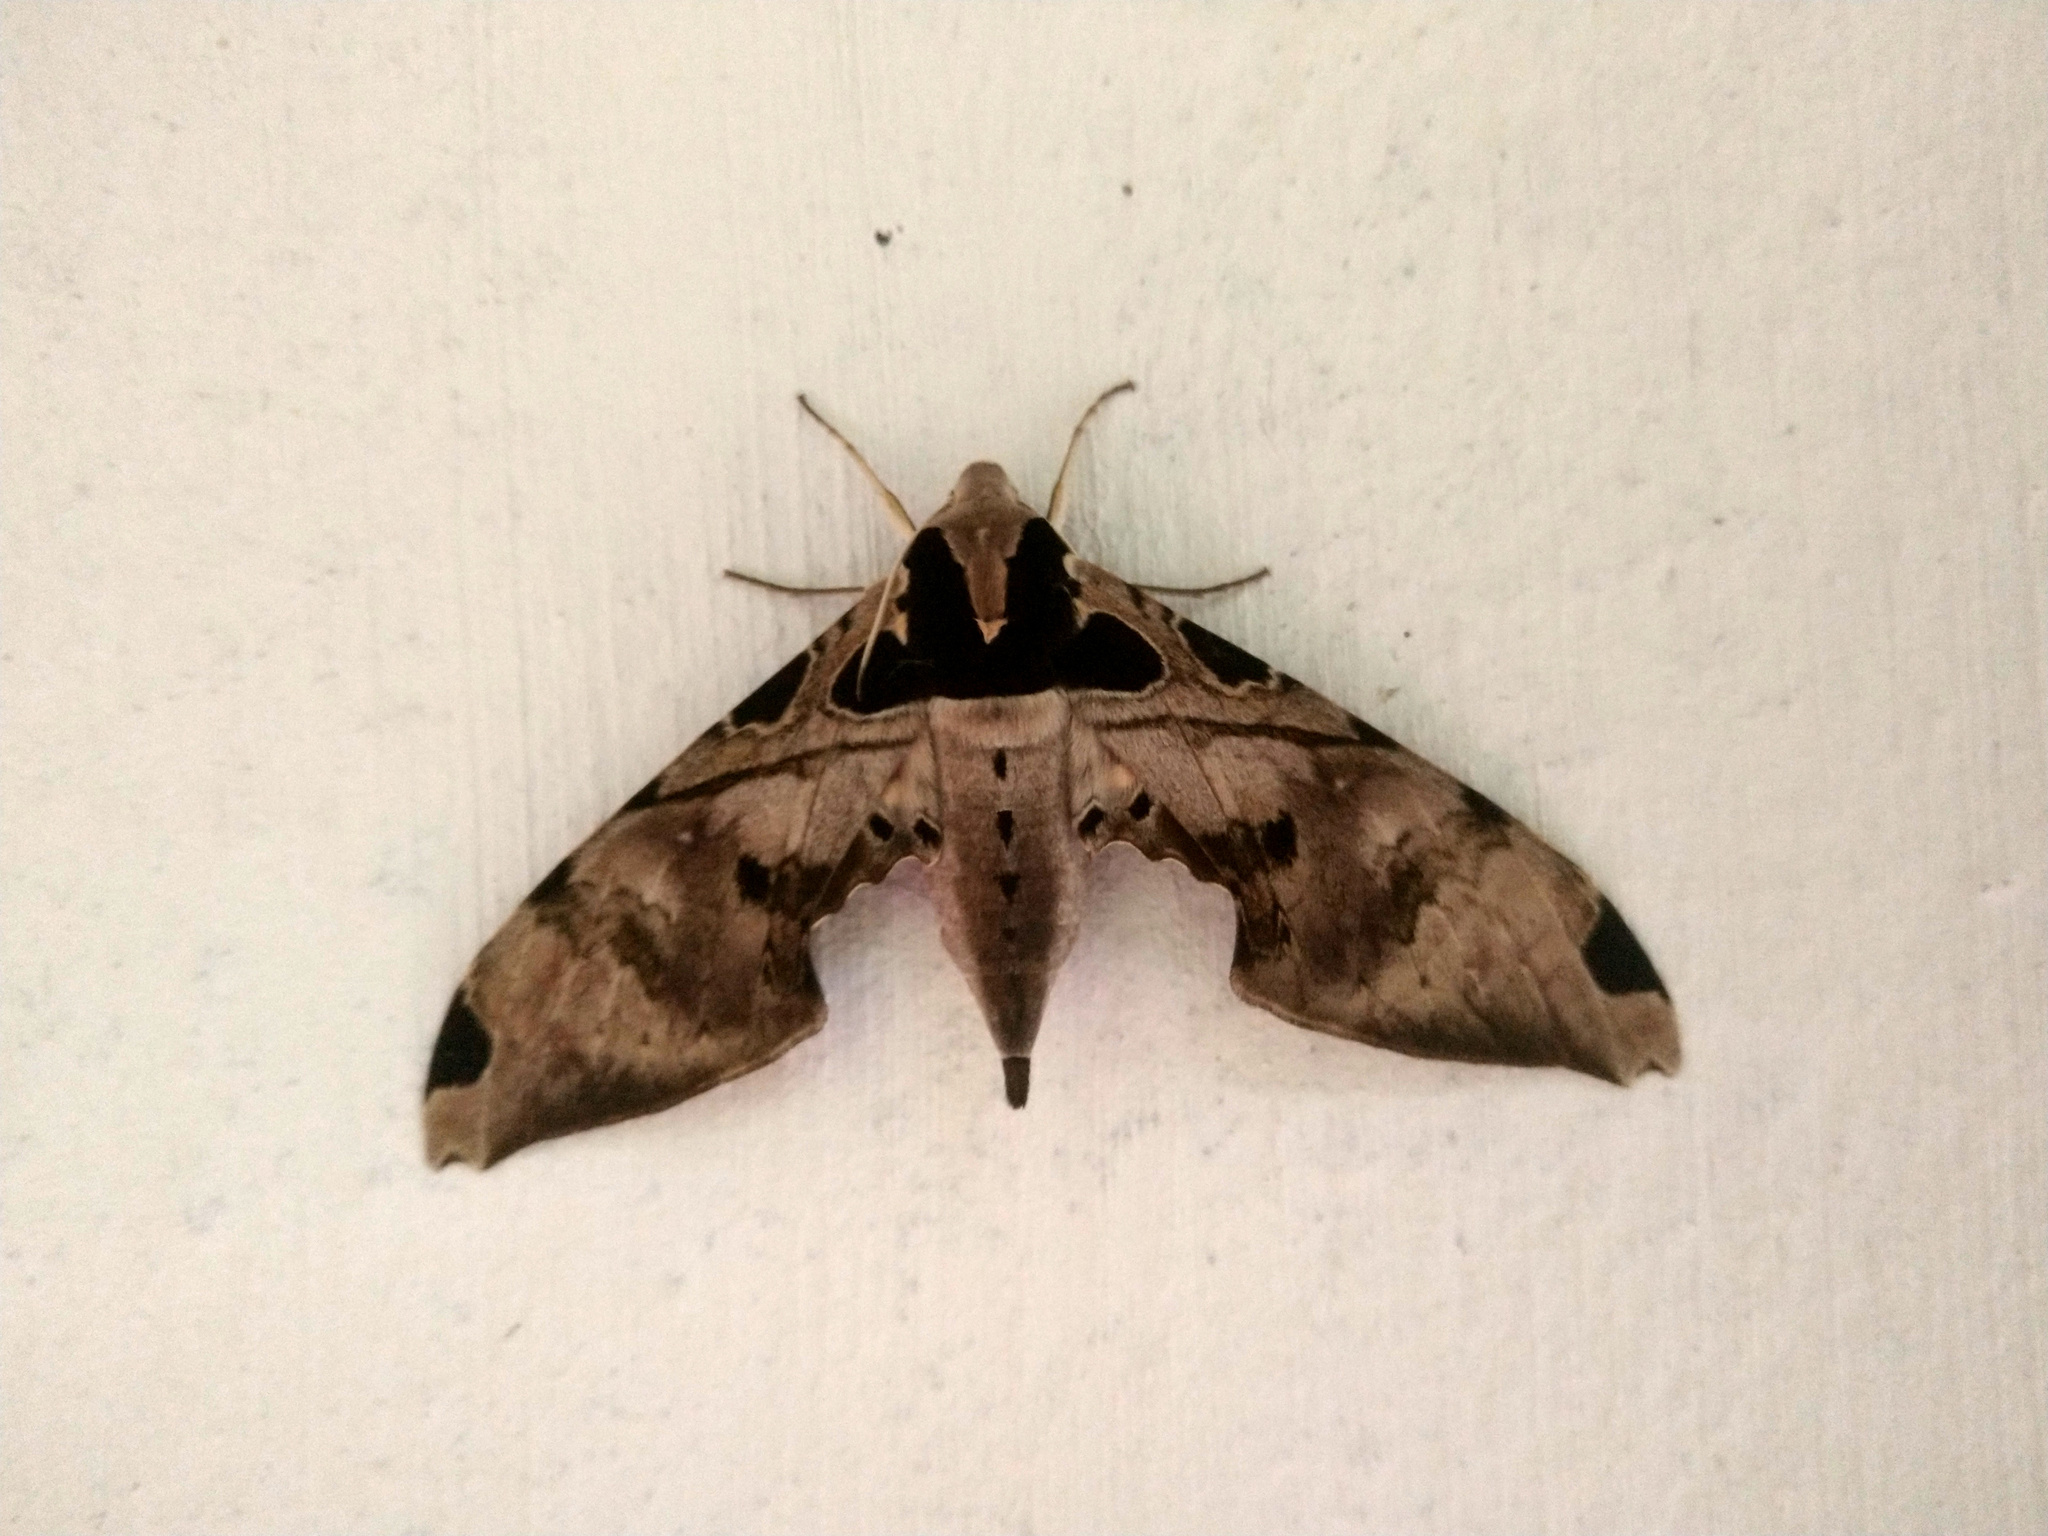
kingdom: Animalia
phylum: Arthropoda
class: Insecta
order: Lepidoptera
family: Sphingidae
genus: Adhemarius
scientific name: Adhemarius palmeri
